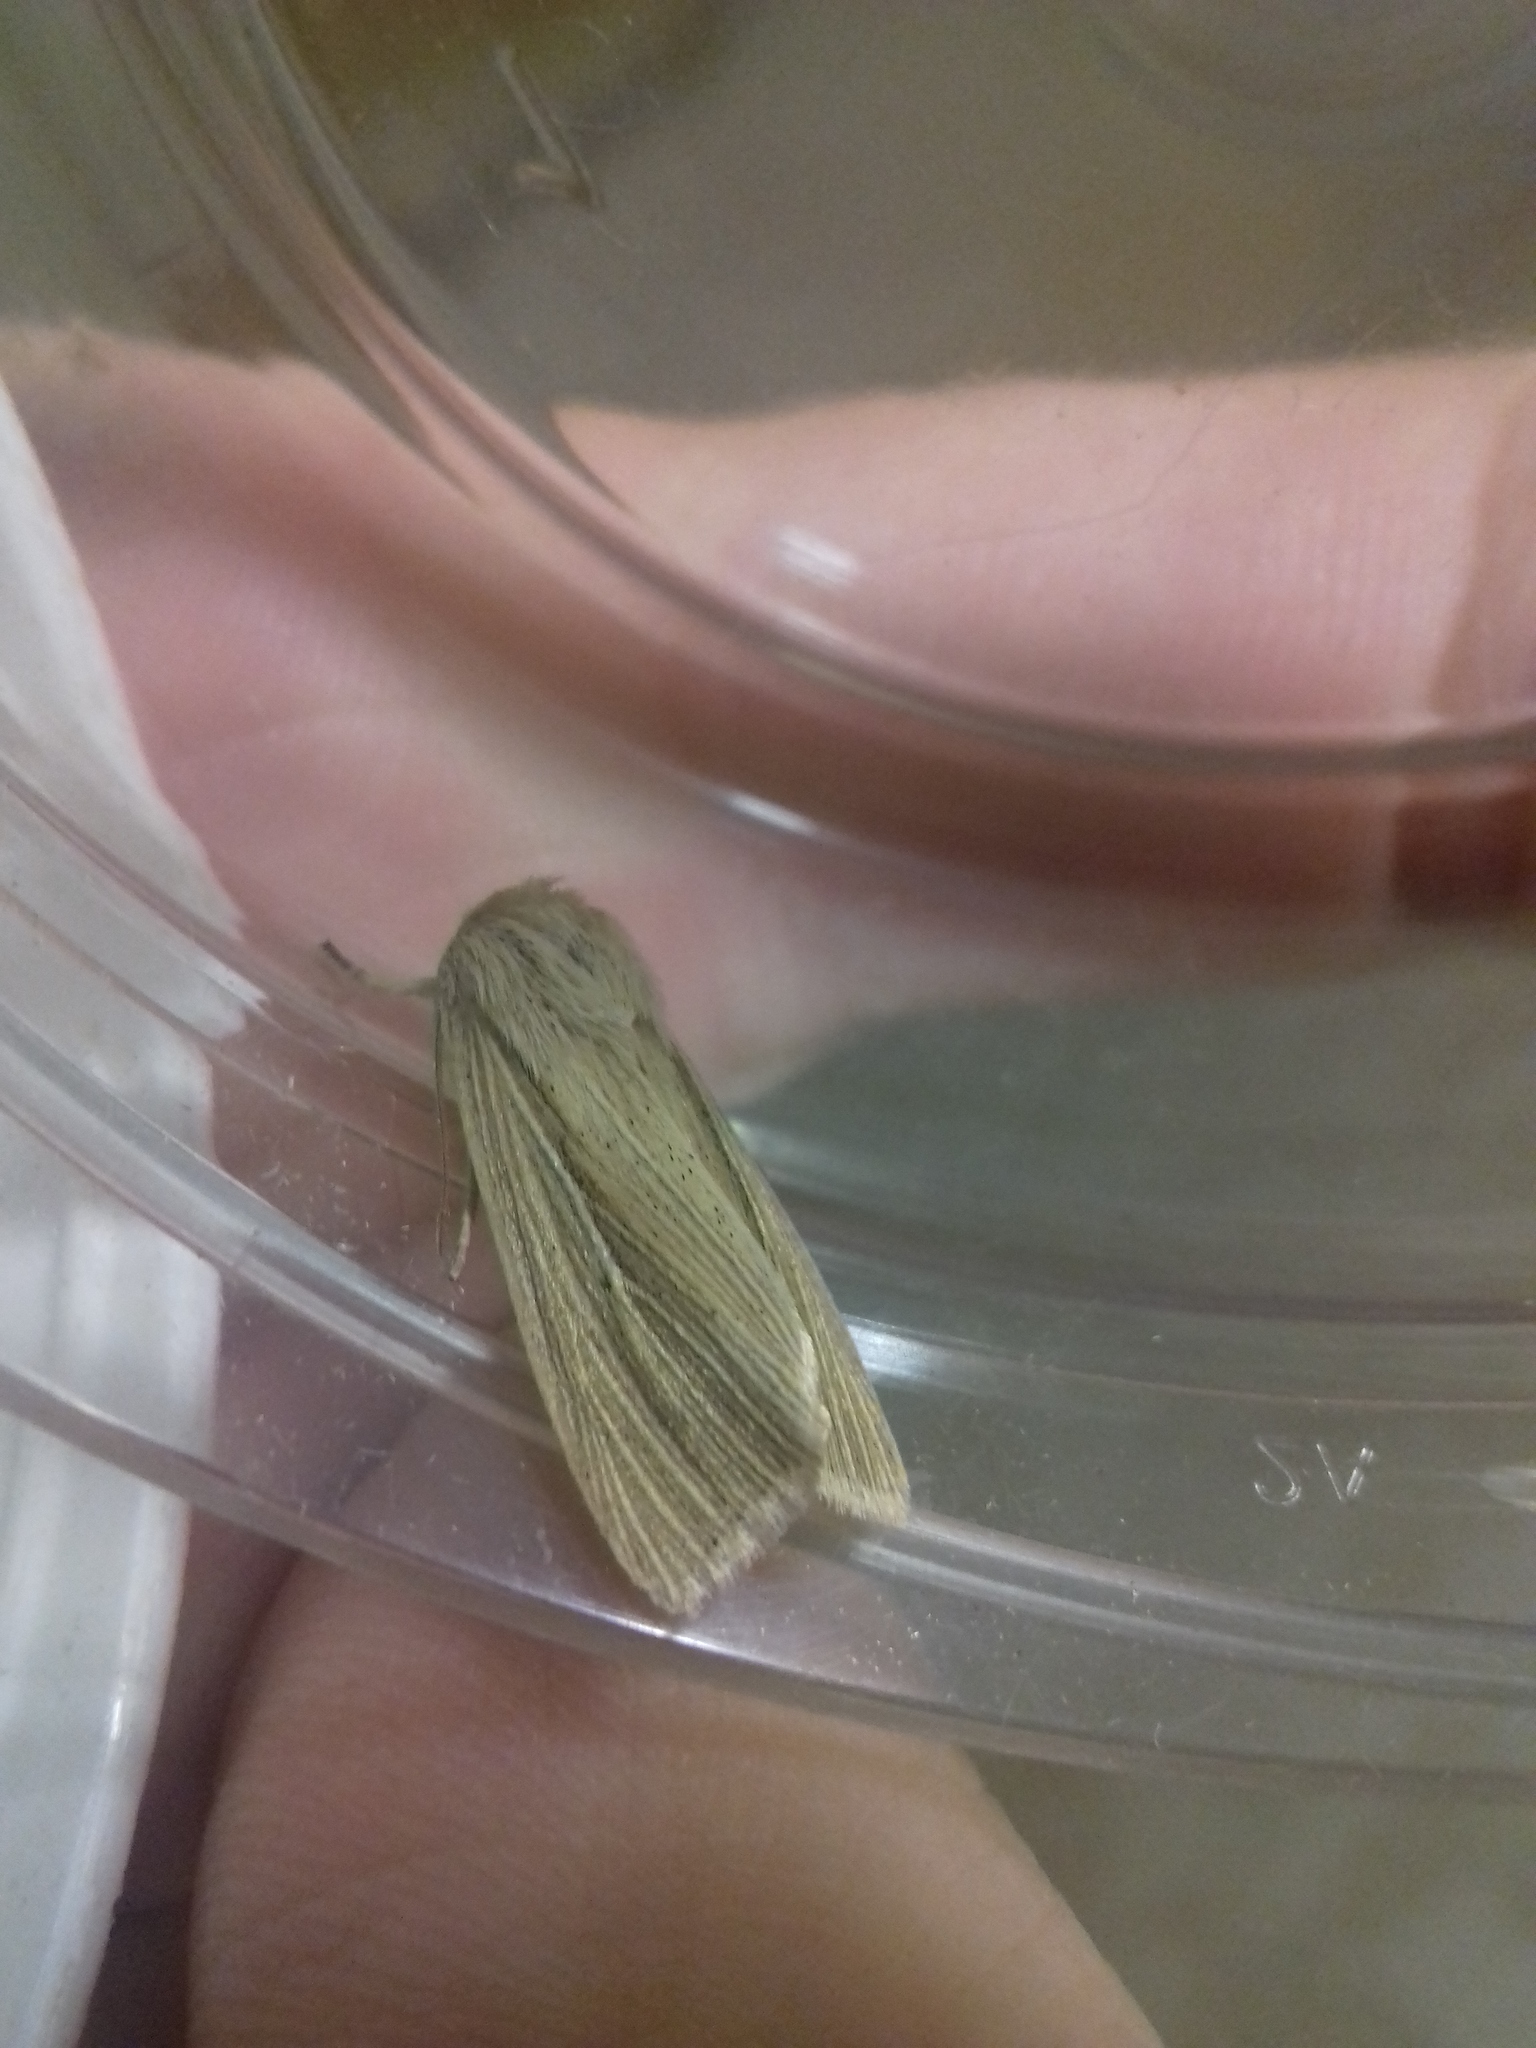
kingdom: Animalia
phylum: Arthropoda
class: Insecta
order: Lepidoptera
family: Noctuidae
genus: Mythimna
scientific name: Mythimna impura
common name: Smoky wainscot
